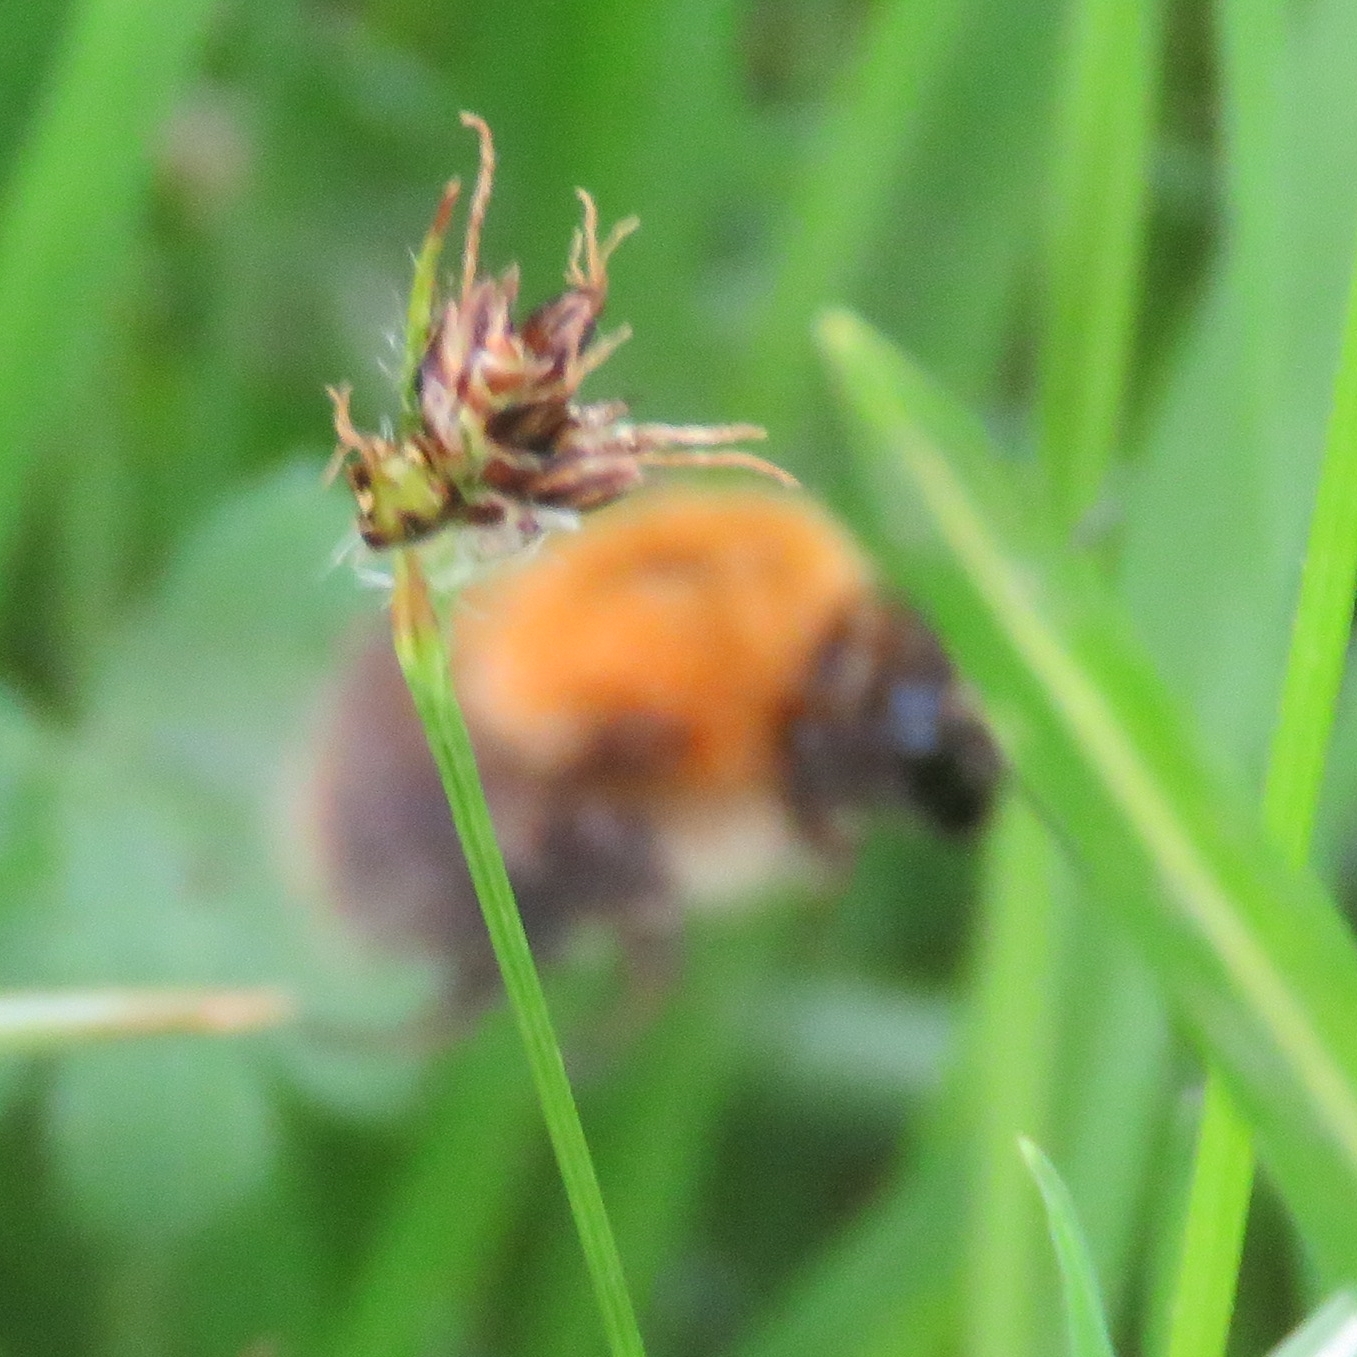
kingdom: Plantae
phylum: Tracheophyta
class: Liliopsida
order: Poales
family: Juncaceae
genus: Luzula
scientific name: Luzula campestris
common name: Field wood-rush
